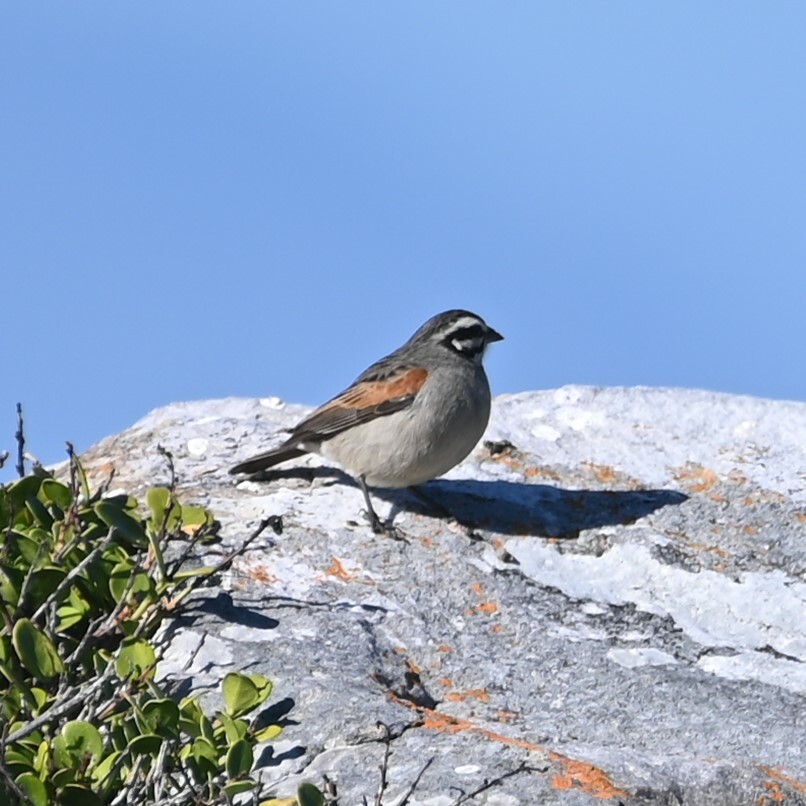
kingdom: Animalia
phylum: Chordata
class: Aves
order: Passeriformes
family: Emberizidae
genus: Emberiza
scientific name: Emberiza capensis
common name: Cape bunting
